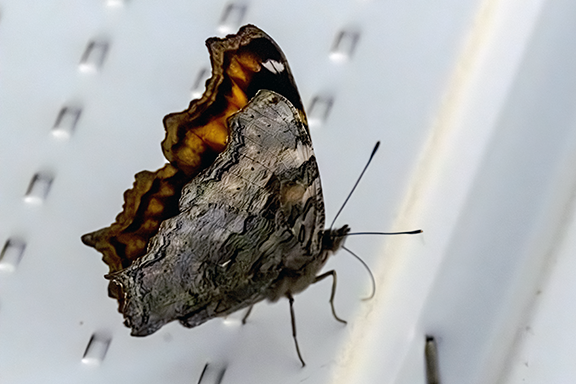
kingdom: Animalia
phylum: Arthropoda
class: Insecta
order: Lepidoptera
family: Nymphalidae
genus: Polygonia
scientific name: Polygonia vaualbum
